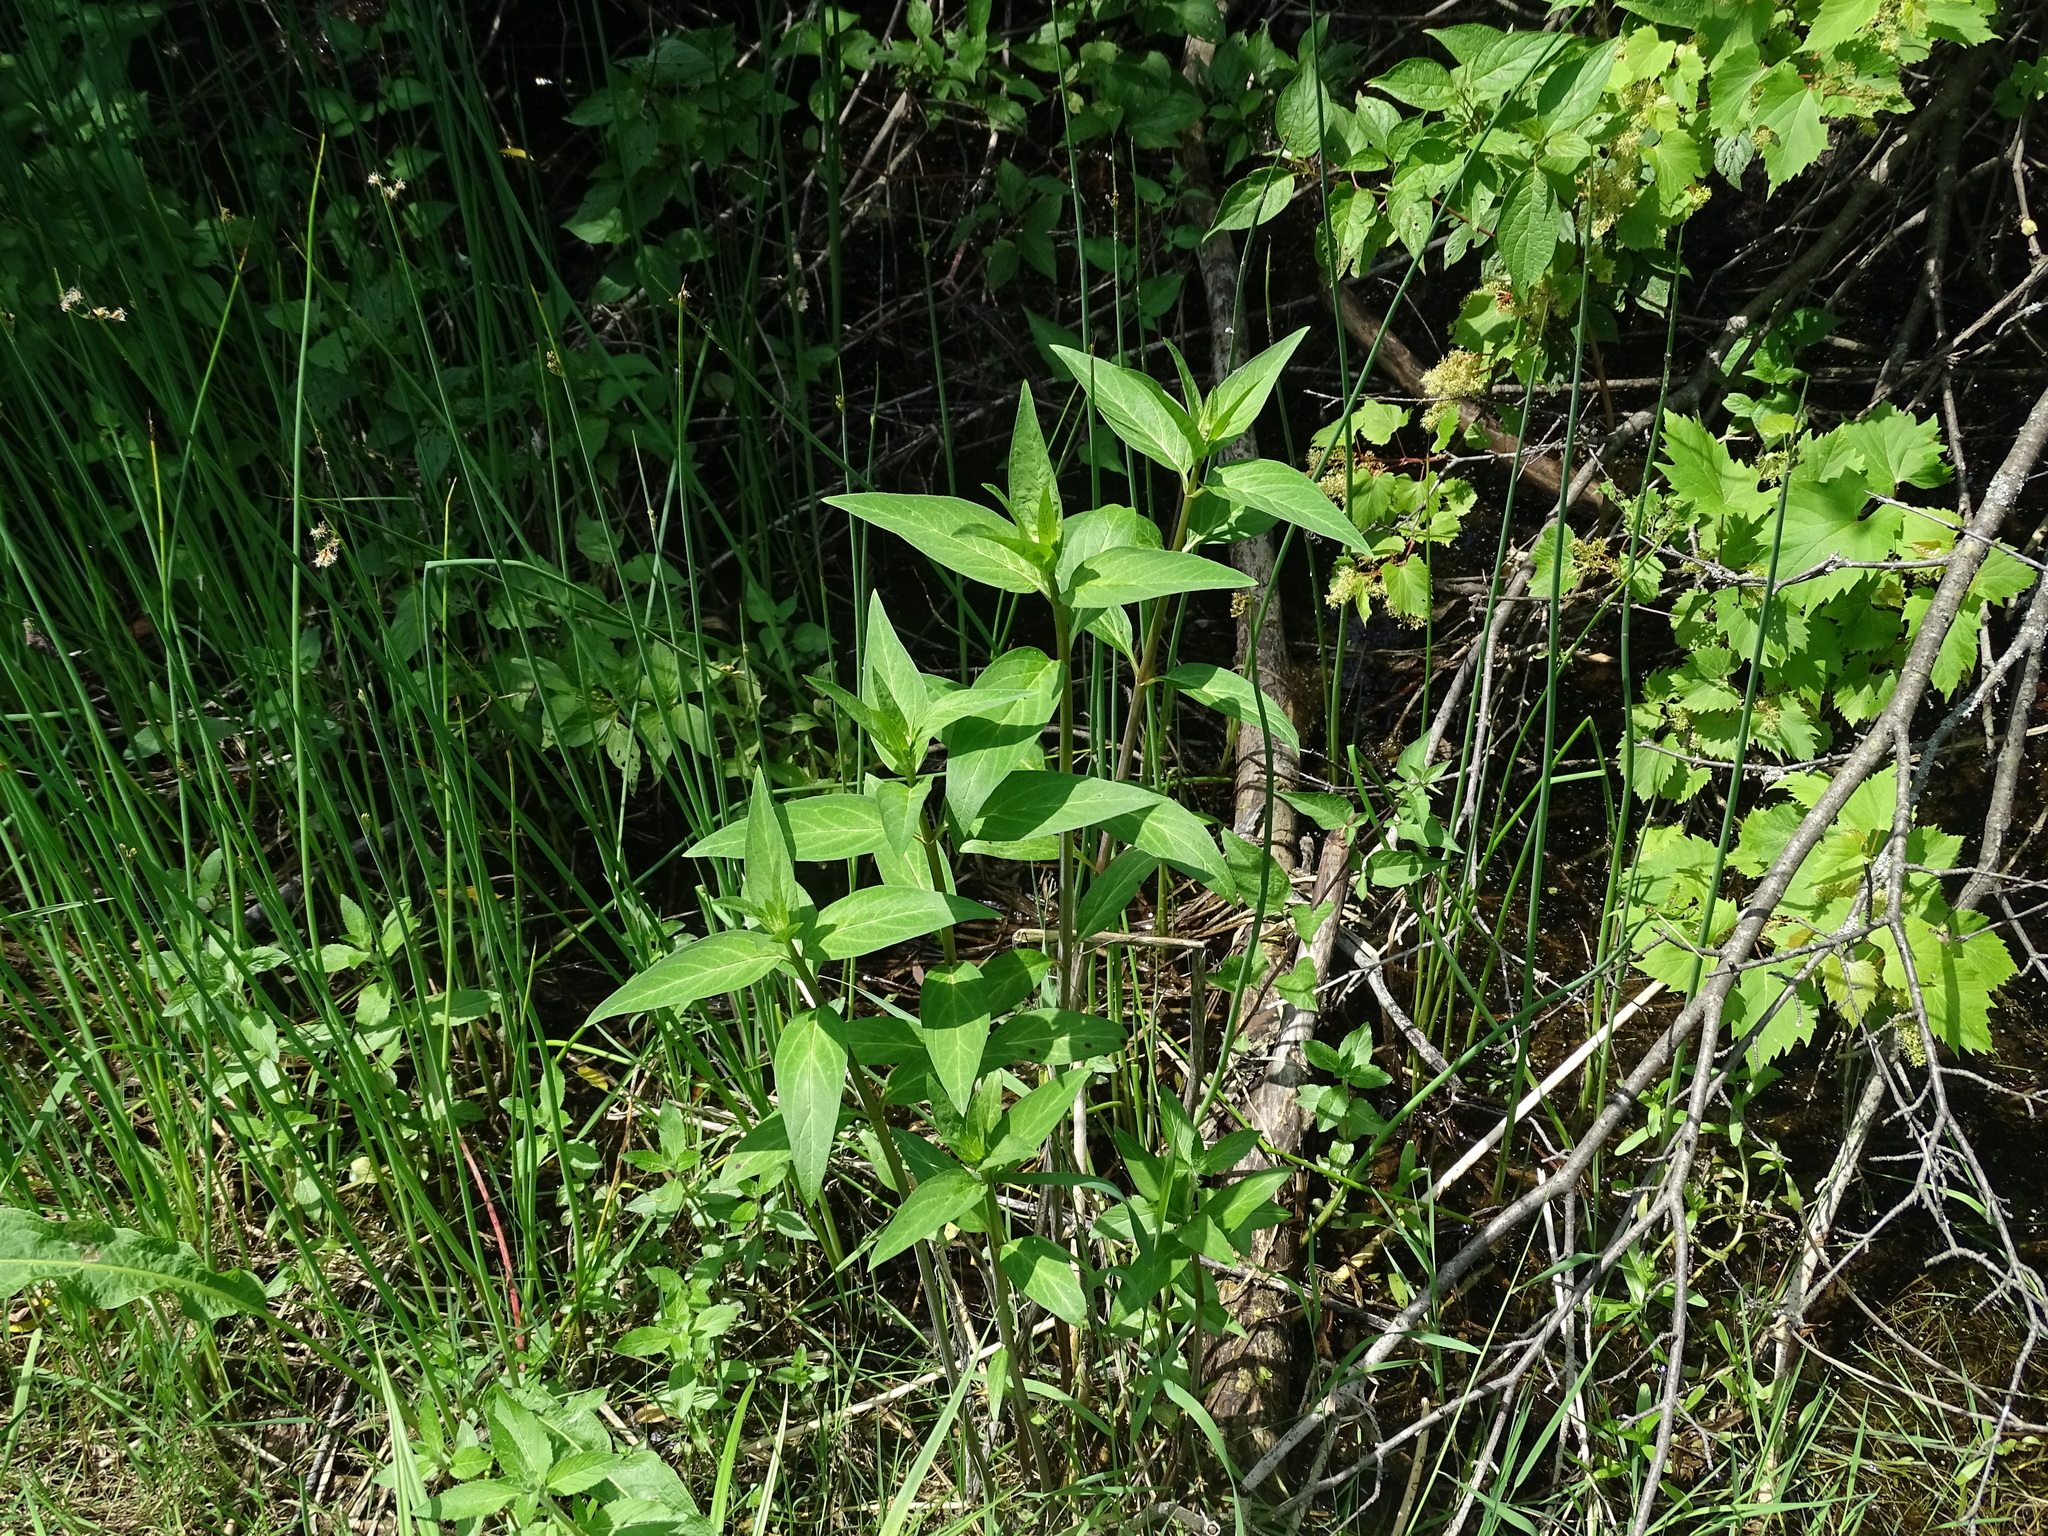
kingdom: Plantae
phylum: Tracheophyta
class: Magnoliopsida
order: Gentianales
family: Apocynaceae
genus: Asclepias
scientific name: Asclepias incarnata
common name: Swamp milkweed
